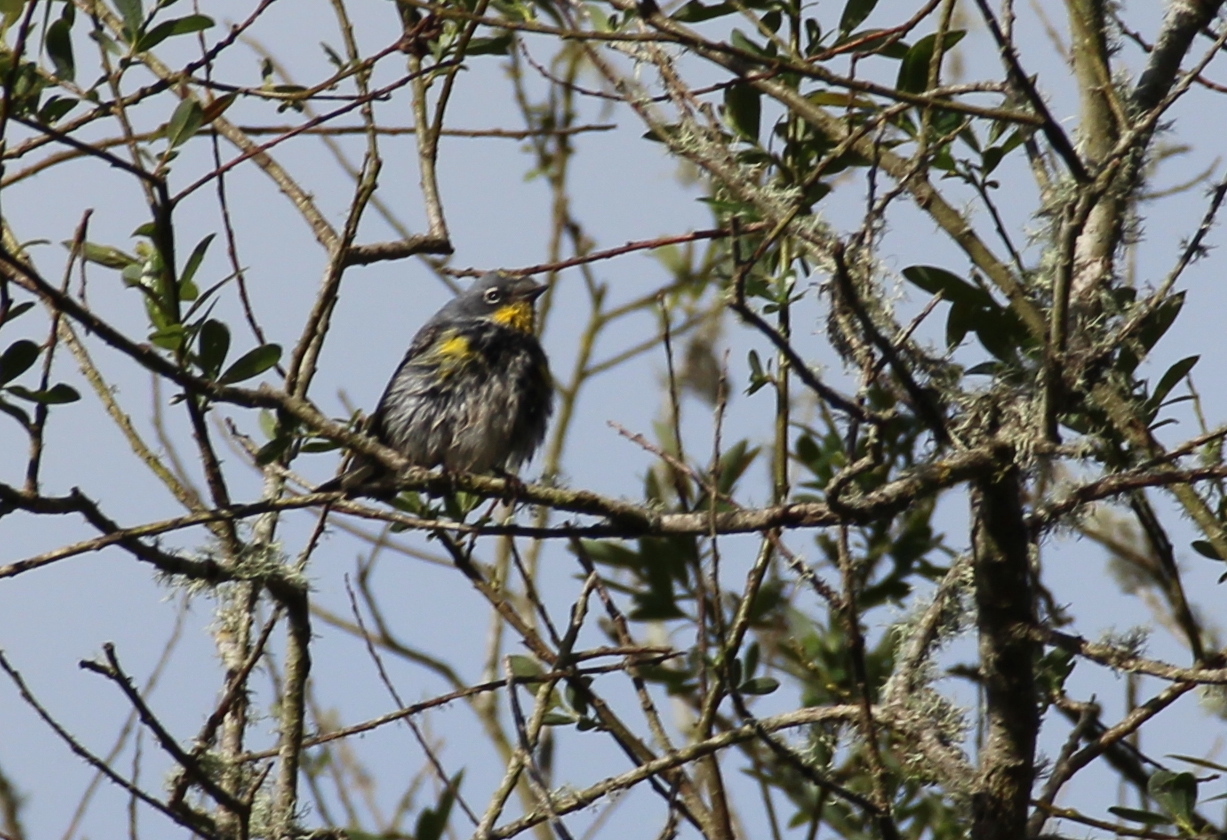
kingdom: Animalia
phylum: Chordata
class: Aves
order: Passeriformes
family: Parulidae
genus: Setophaga
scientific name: Setophaga coronata
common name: Myrtle warbler
